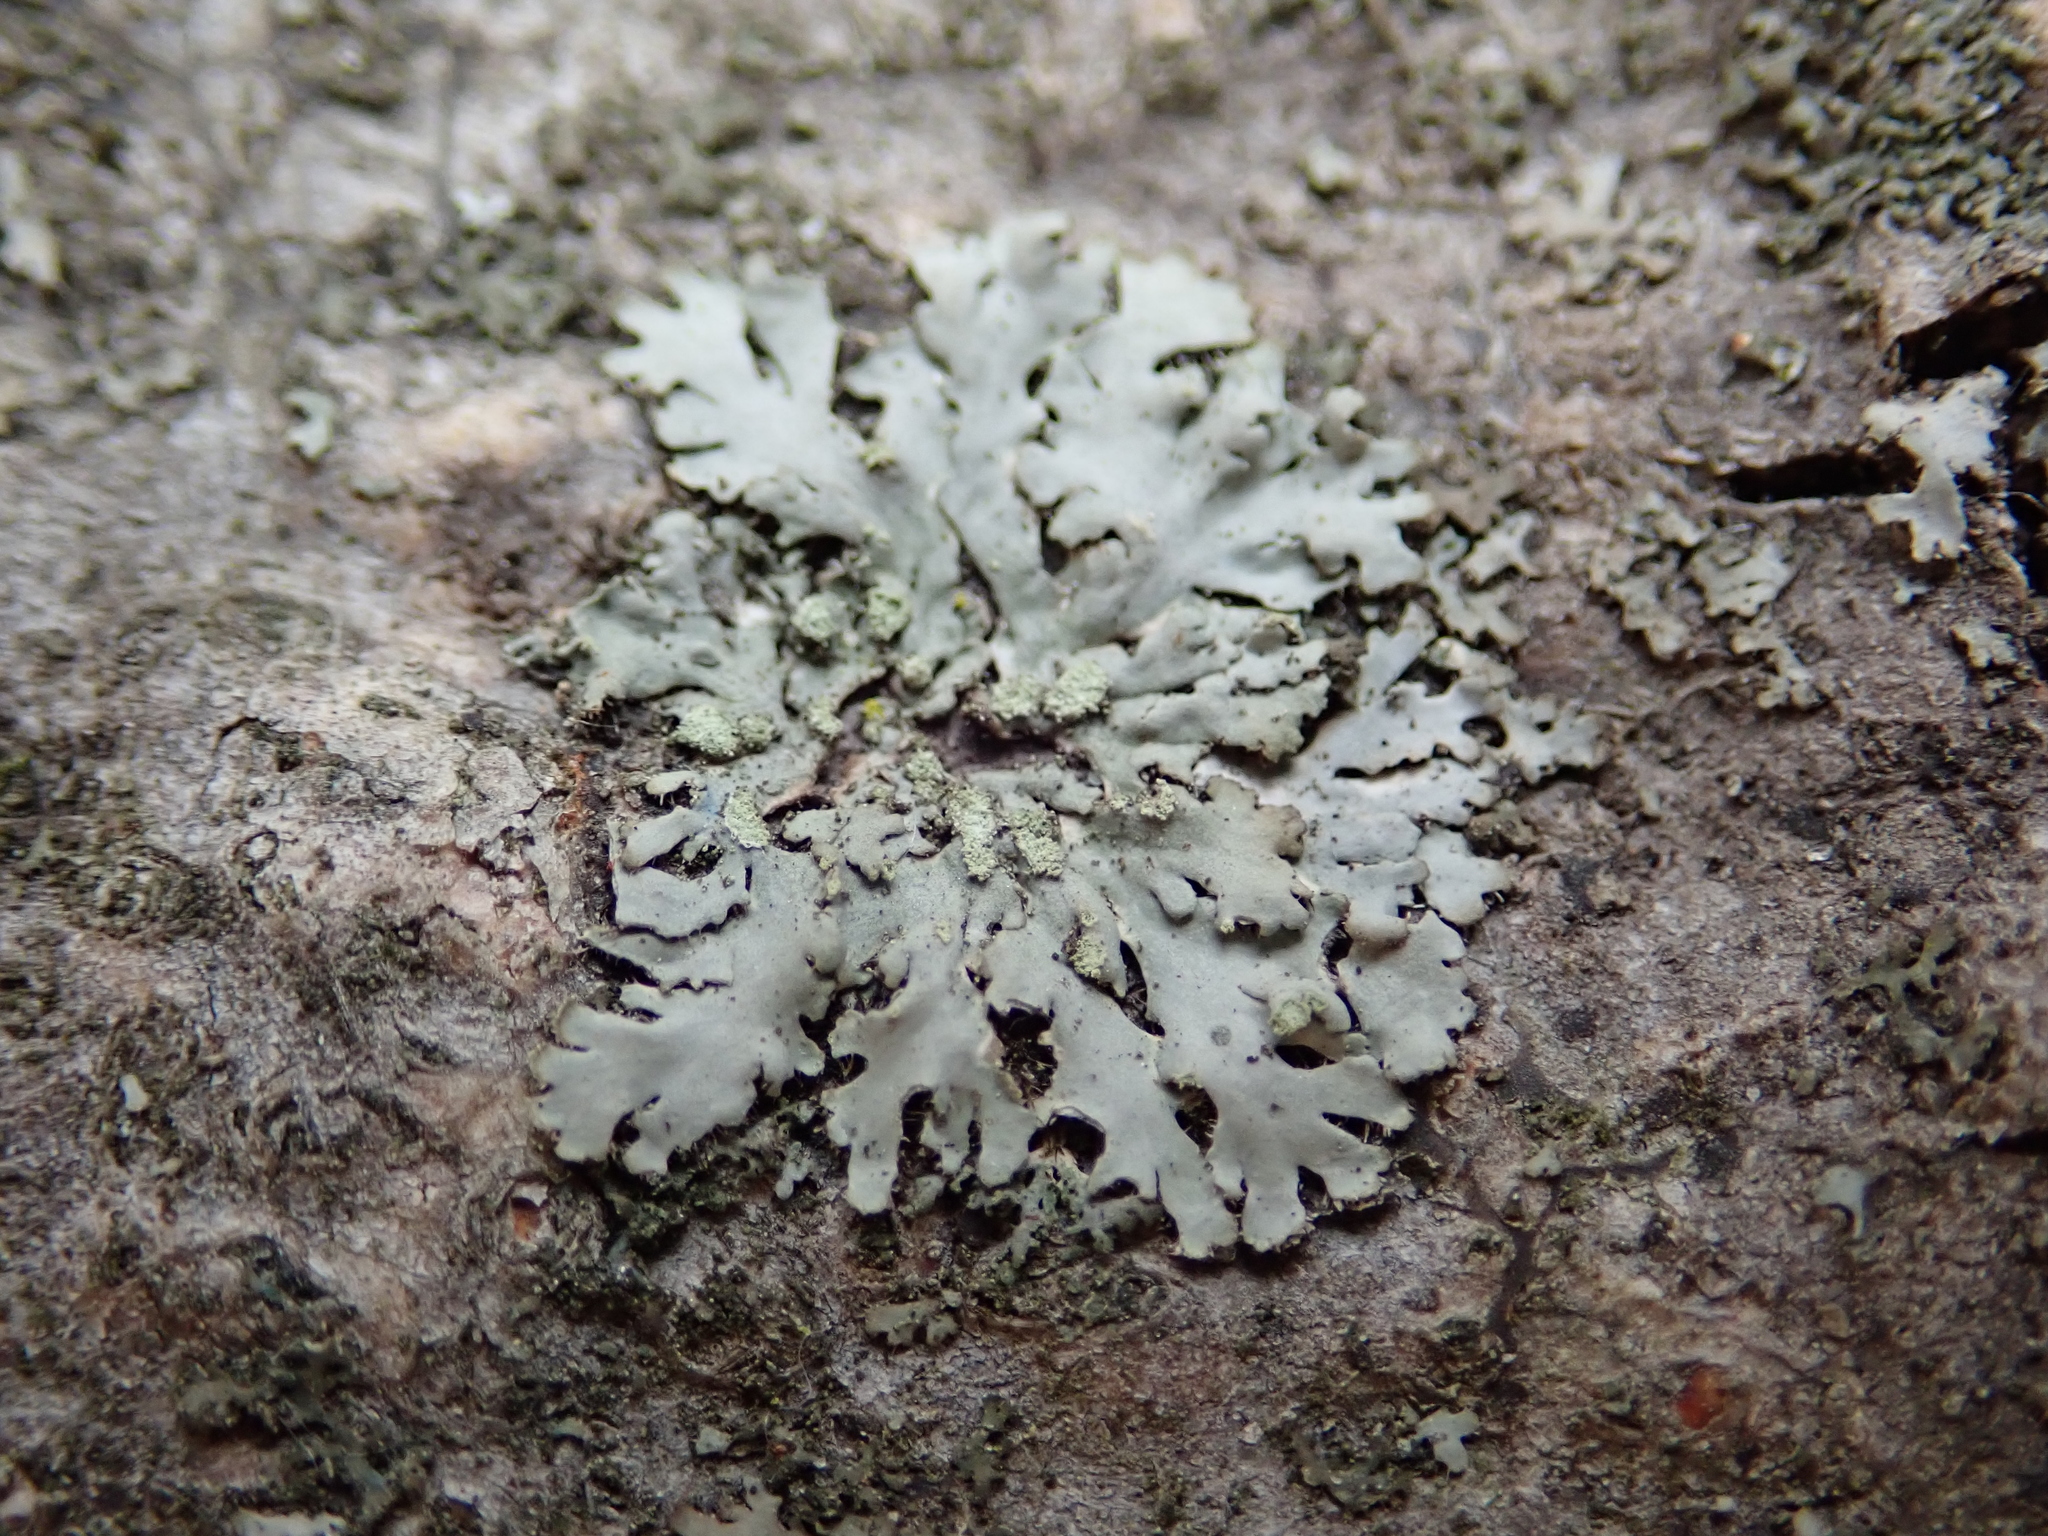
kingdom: Fungi
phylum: Ascomycota
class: Lecanoromycetes
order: Caliciales
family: Physciaceae
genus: Physcia
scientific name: Physcia adscendens
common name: Hooded rosette lichen
